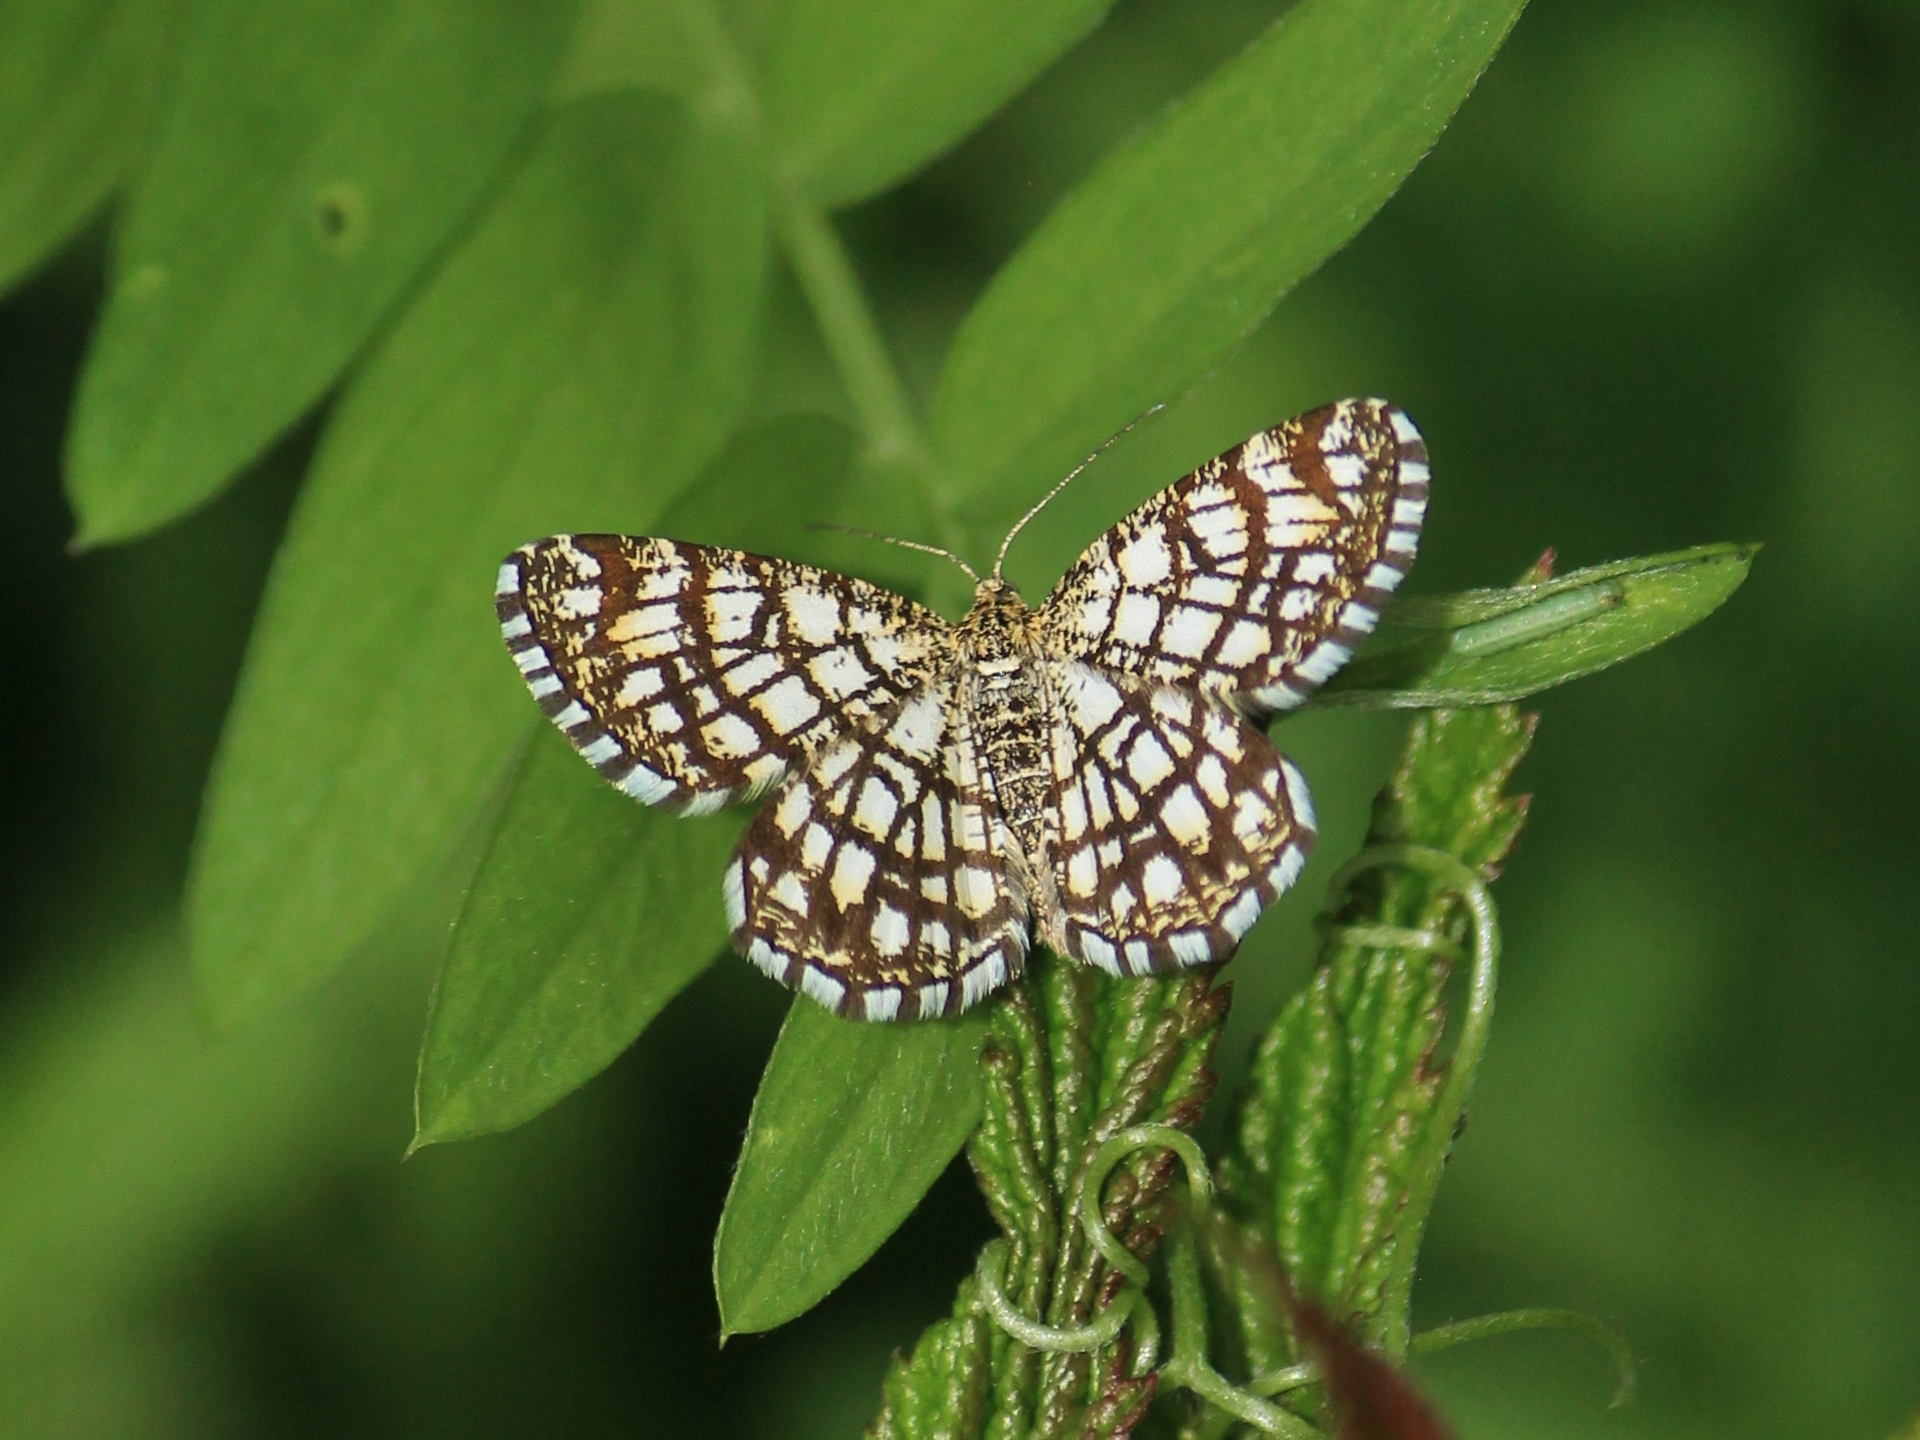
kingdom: Animalia
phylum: Arthropoda
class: Insecta
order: Lepidoptera
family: Geometridae
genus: Chiasmia
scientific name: Chiasmia clathrata
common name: Latticed heath
